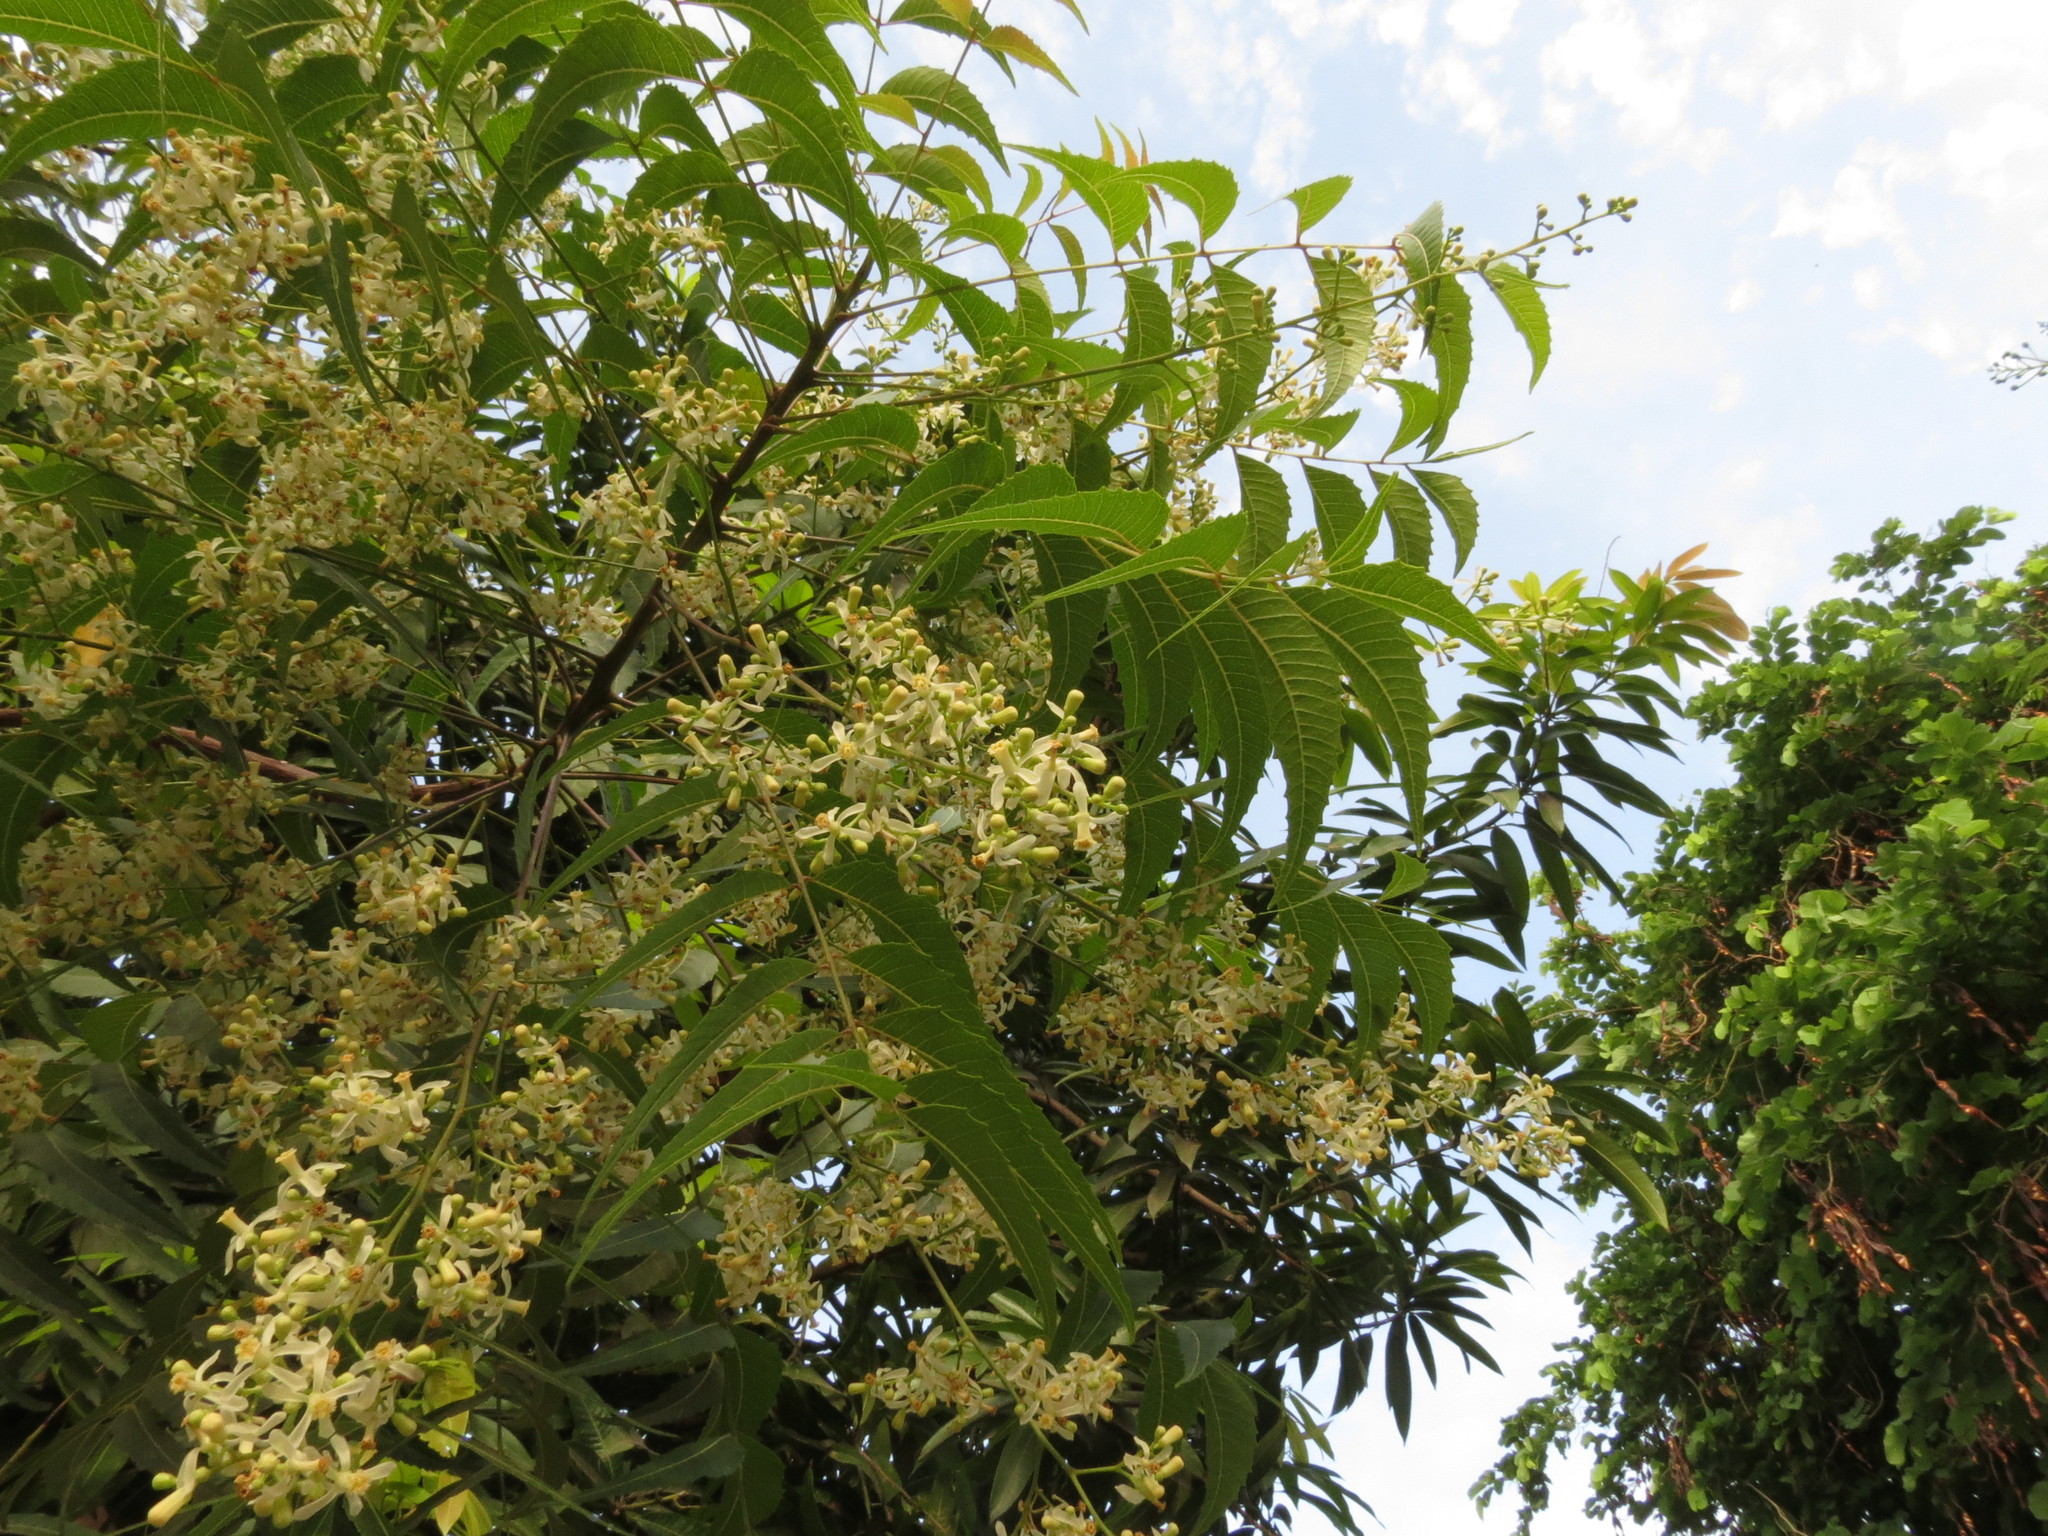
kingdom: Plantae
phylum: Tracheophyta
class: Magnoliopsida
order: Sapindales
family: Meliaceae
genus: Azadirachta
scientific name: Azadirachta indica
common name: Neem
